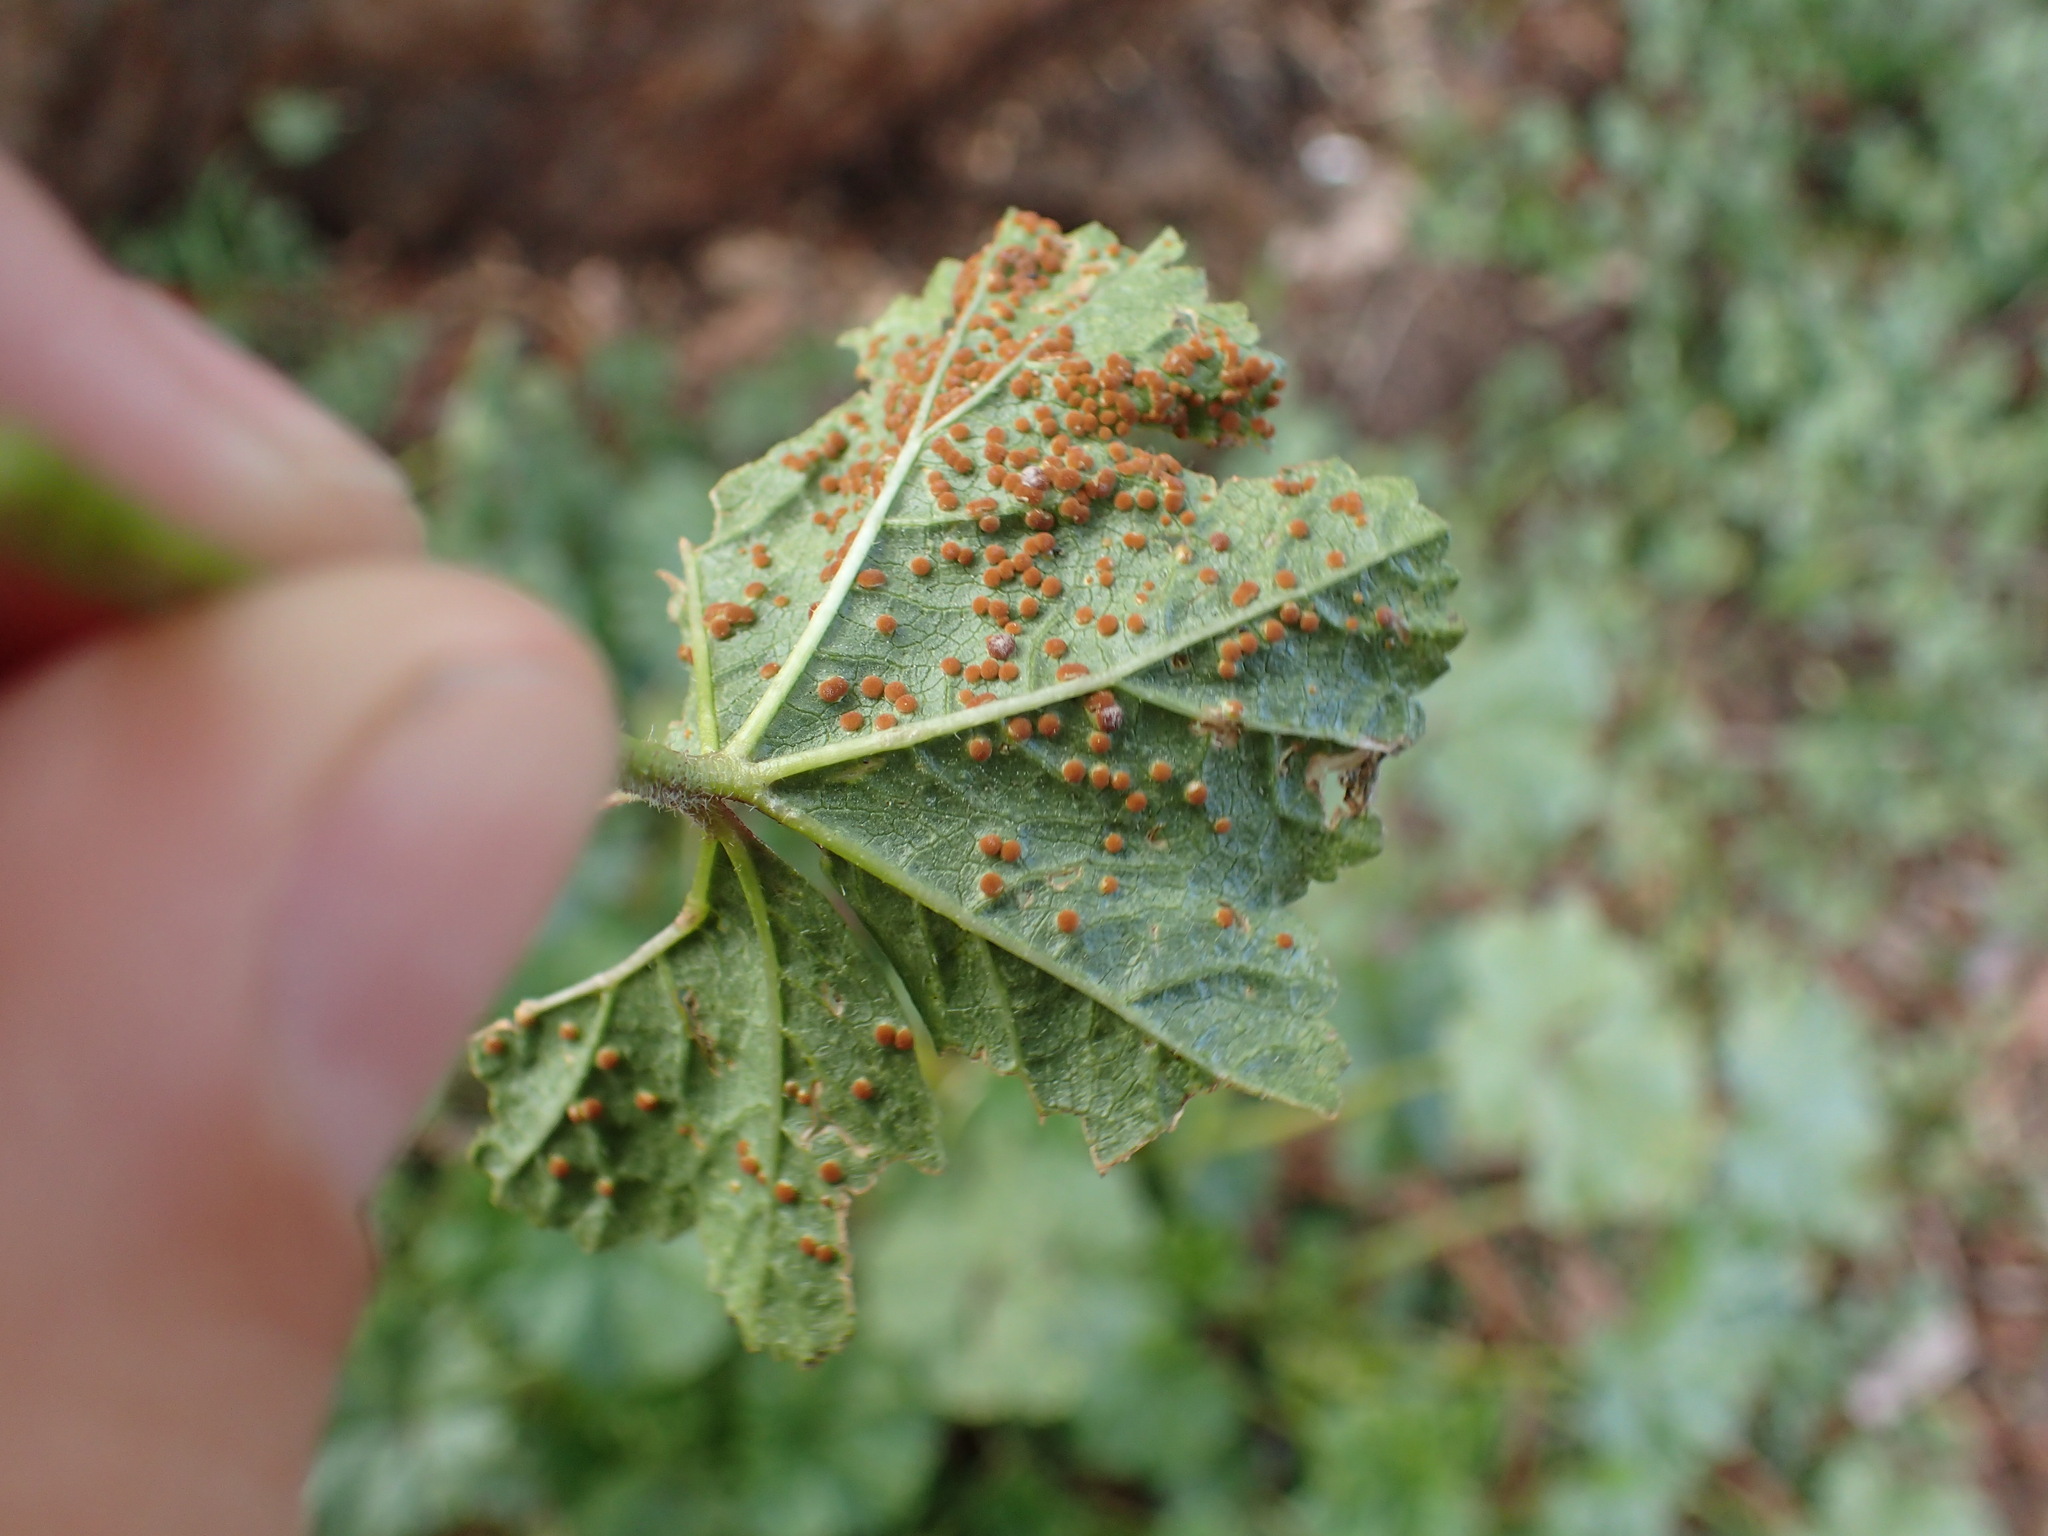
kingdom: Fungi
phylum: Basidiomycota
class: Pucciniomycetes
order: Pucciniales
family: Pucciniaceae
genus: Puccinia
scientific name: Puccinia malvacearum
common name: Hollyhock rust
